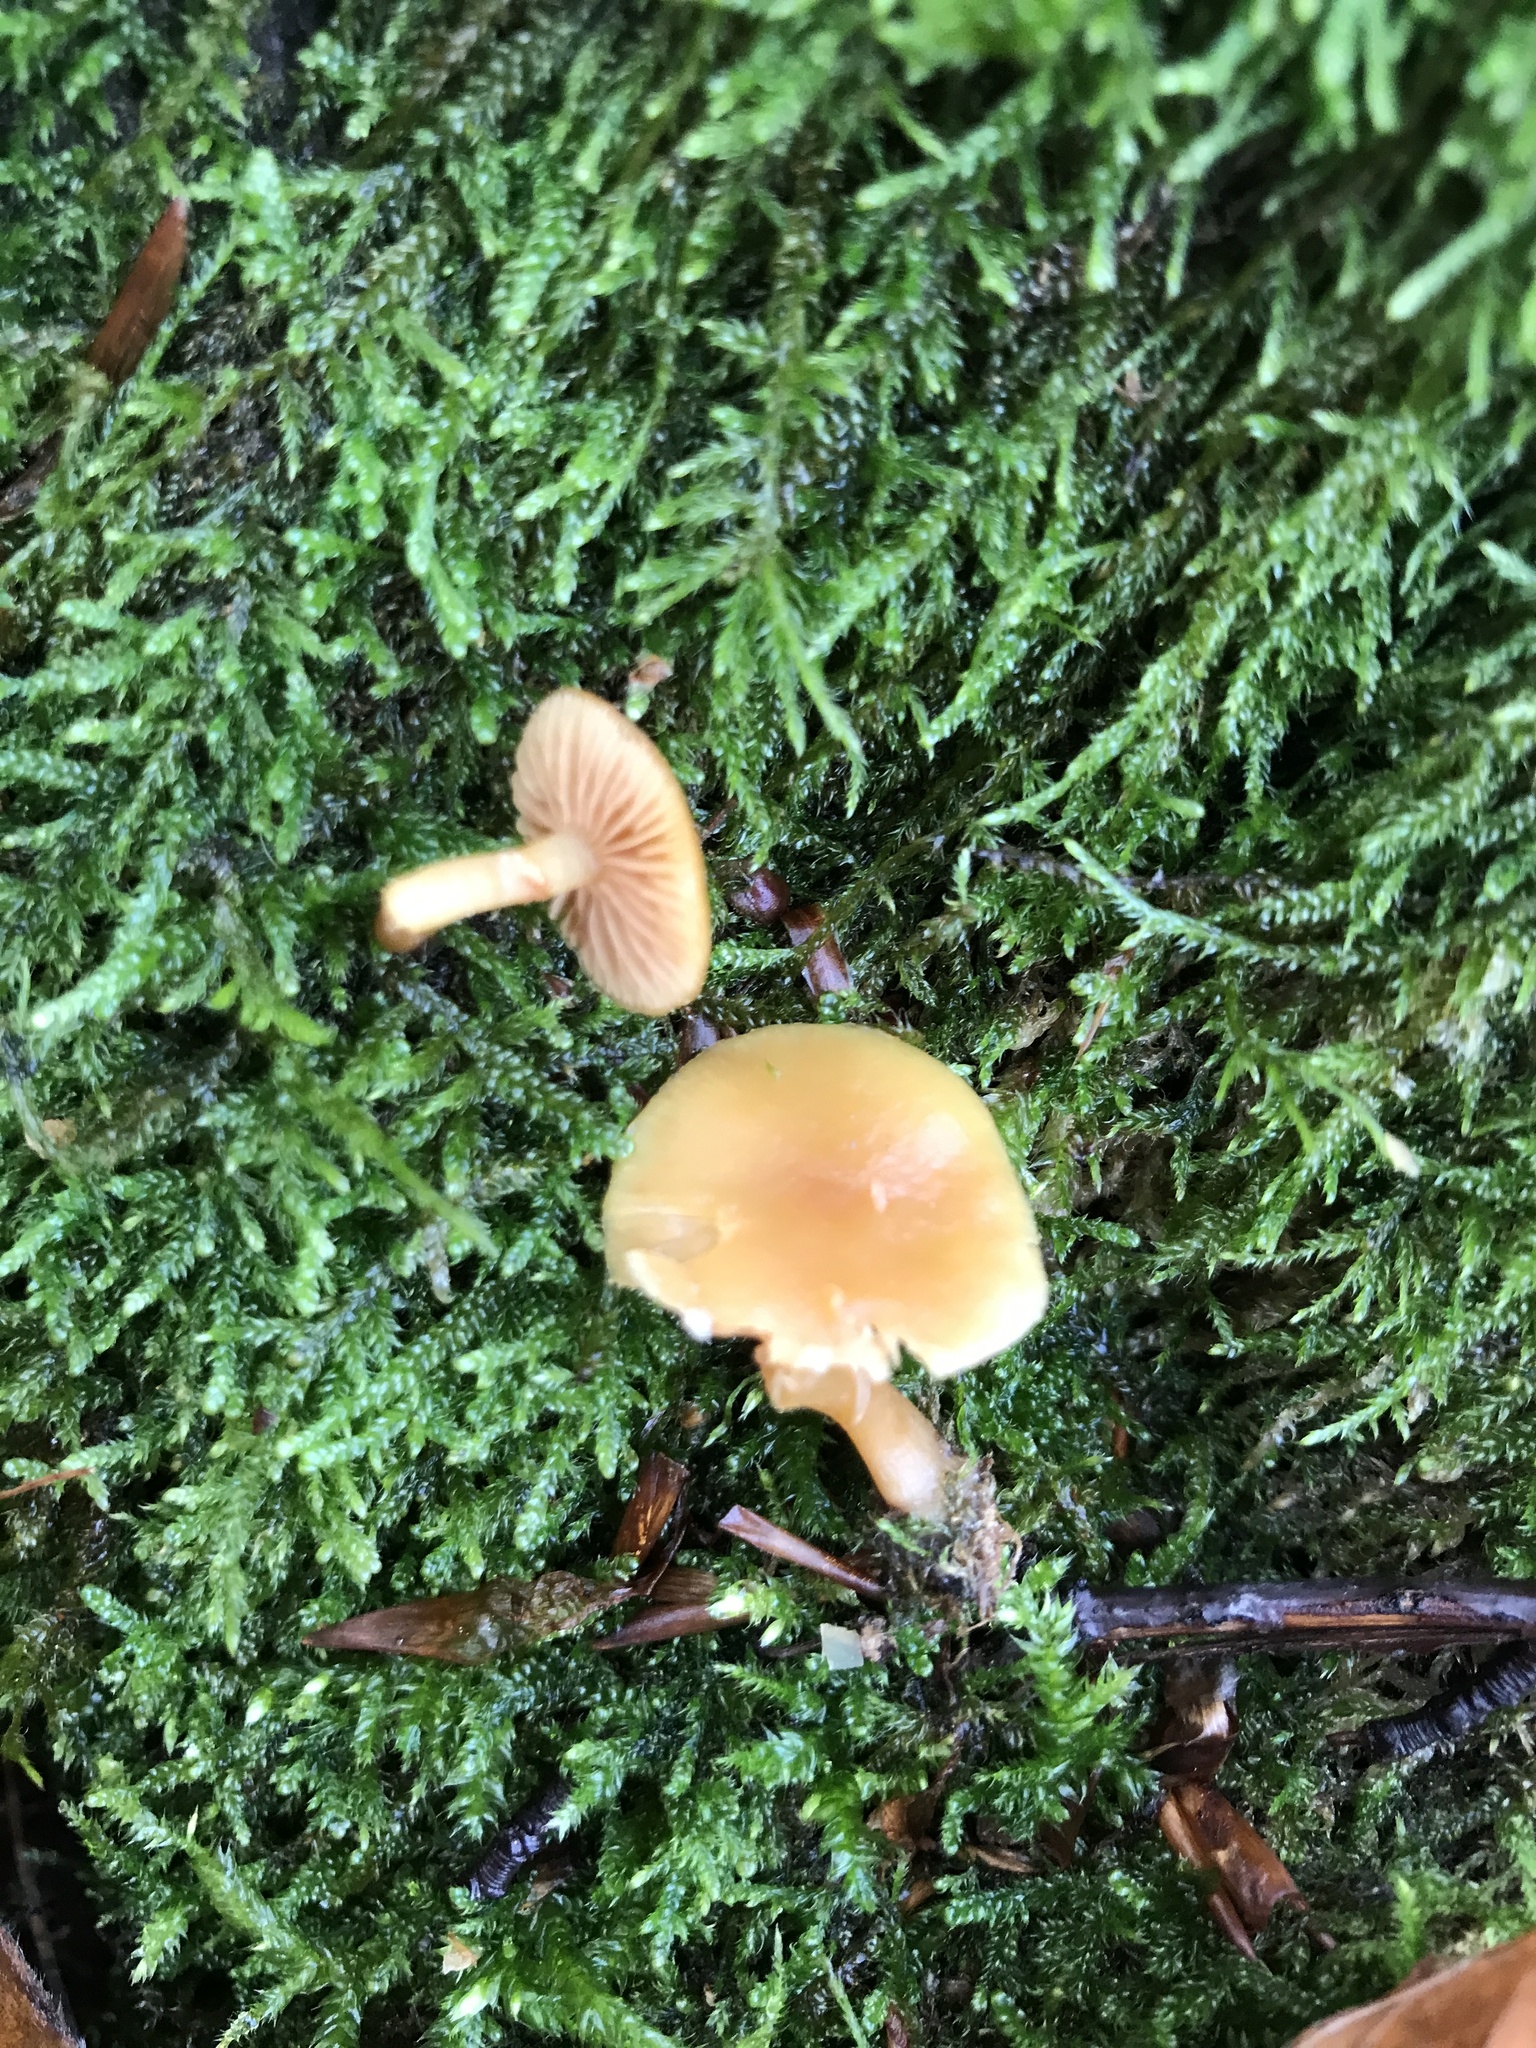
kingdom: Fungi
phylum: Basidiomycota
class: Agaricomycetes
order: Agaricales
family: Hymenogastraceae
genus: Galerina
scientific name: Galerina marginata
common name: Funeral bell
